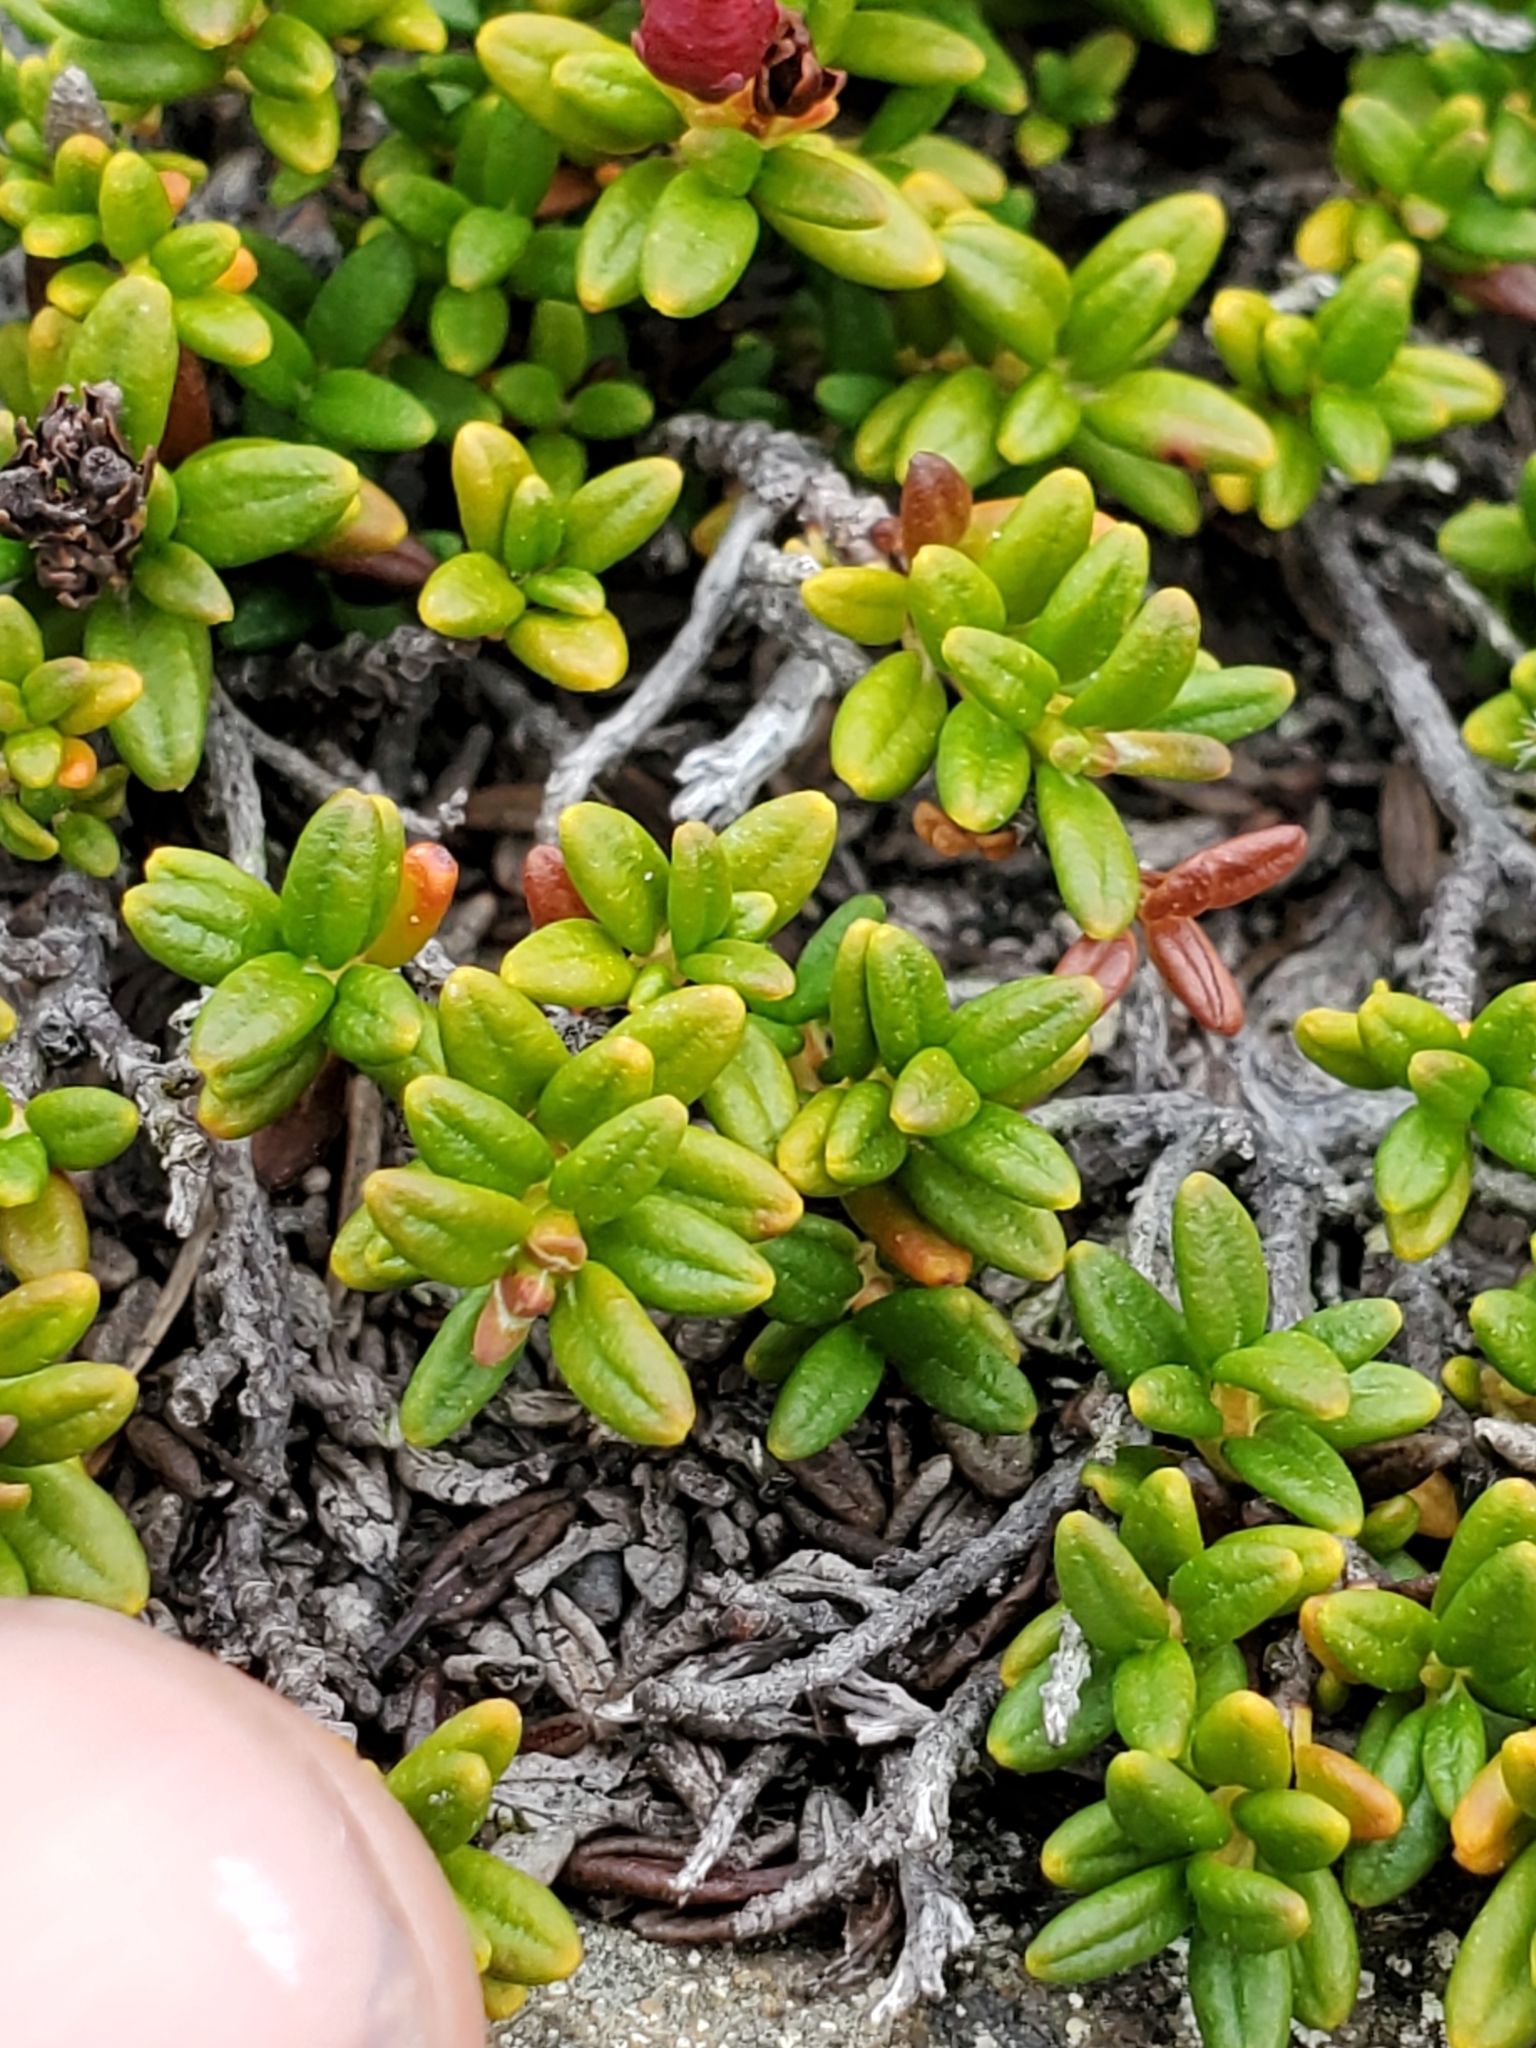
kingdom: Plantae
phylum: Tracheophyta
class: Magnoliopsida
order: Ericales
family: Ericaceae
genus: Kalmia
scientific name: Kalmia procumbens
